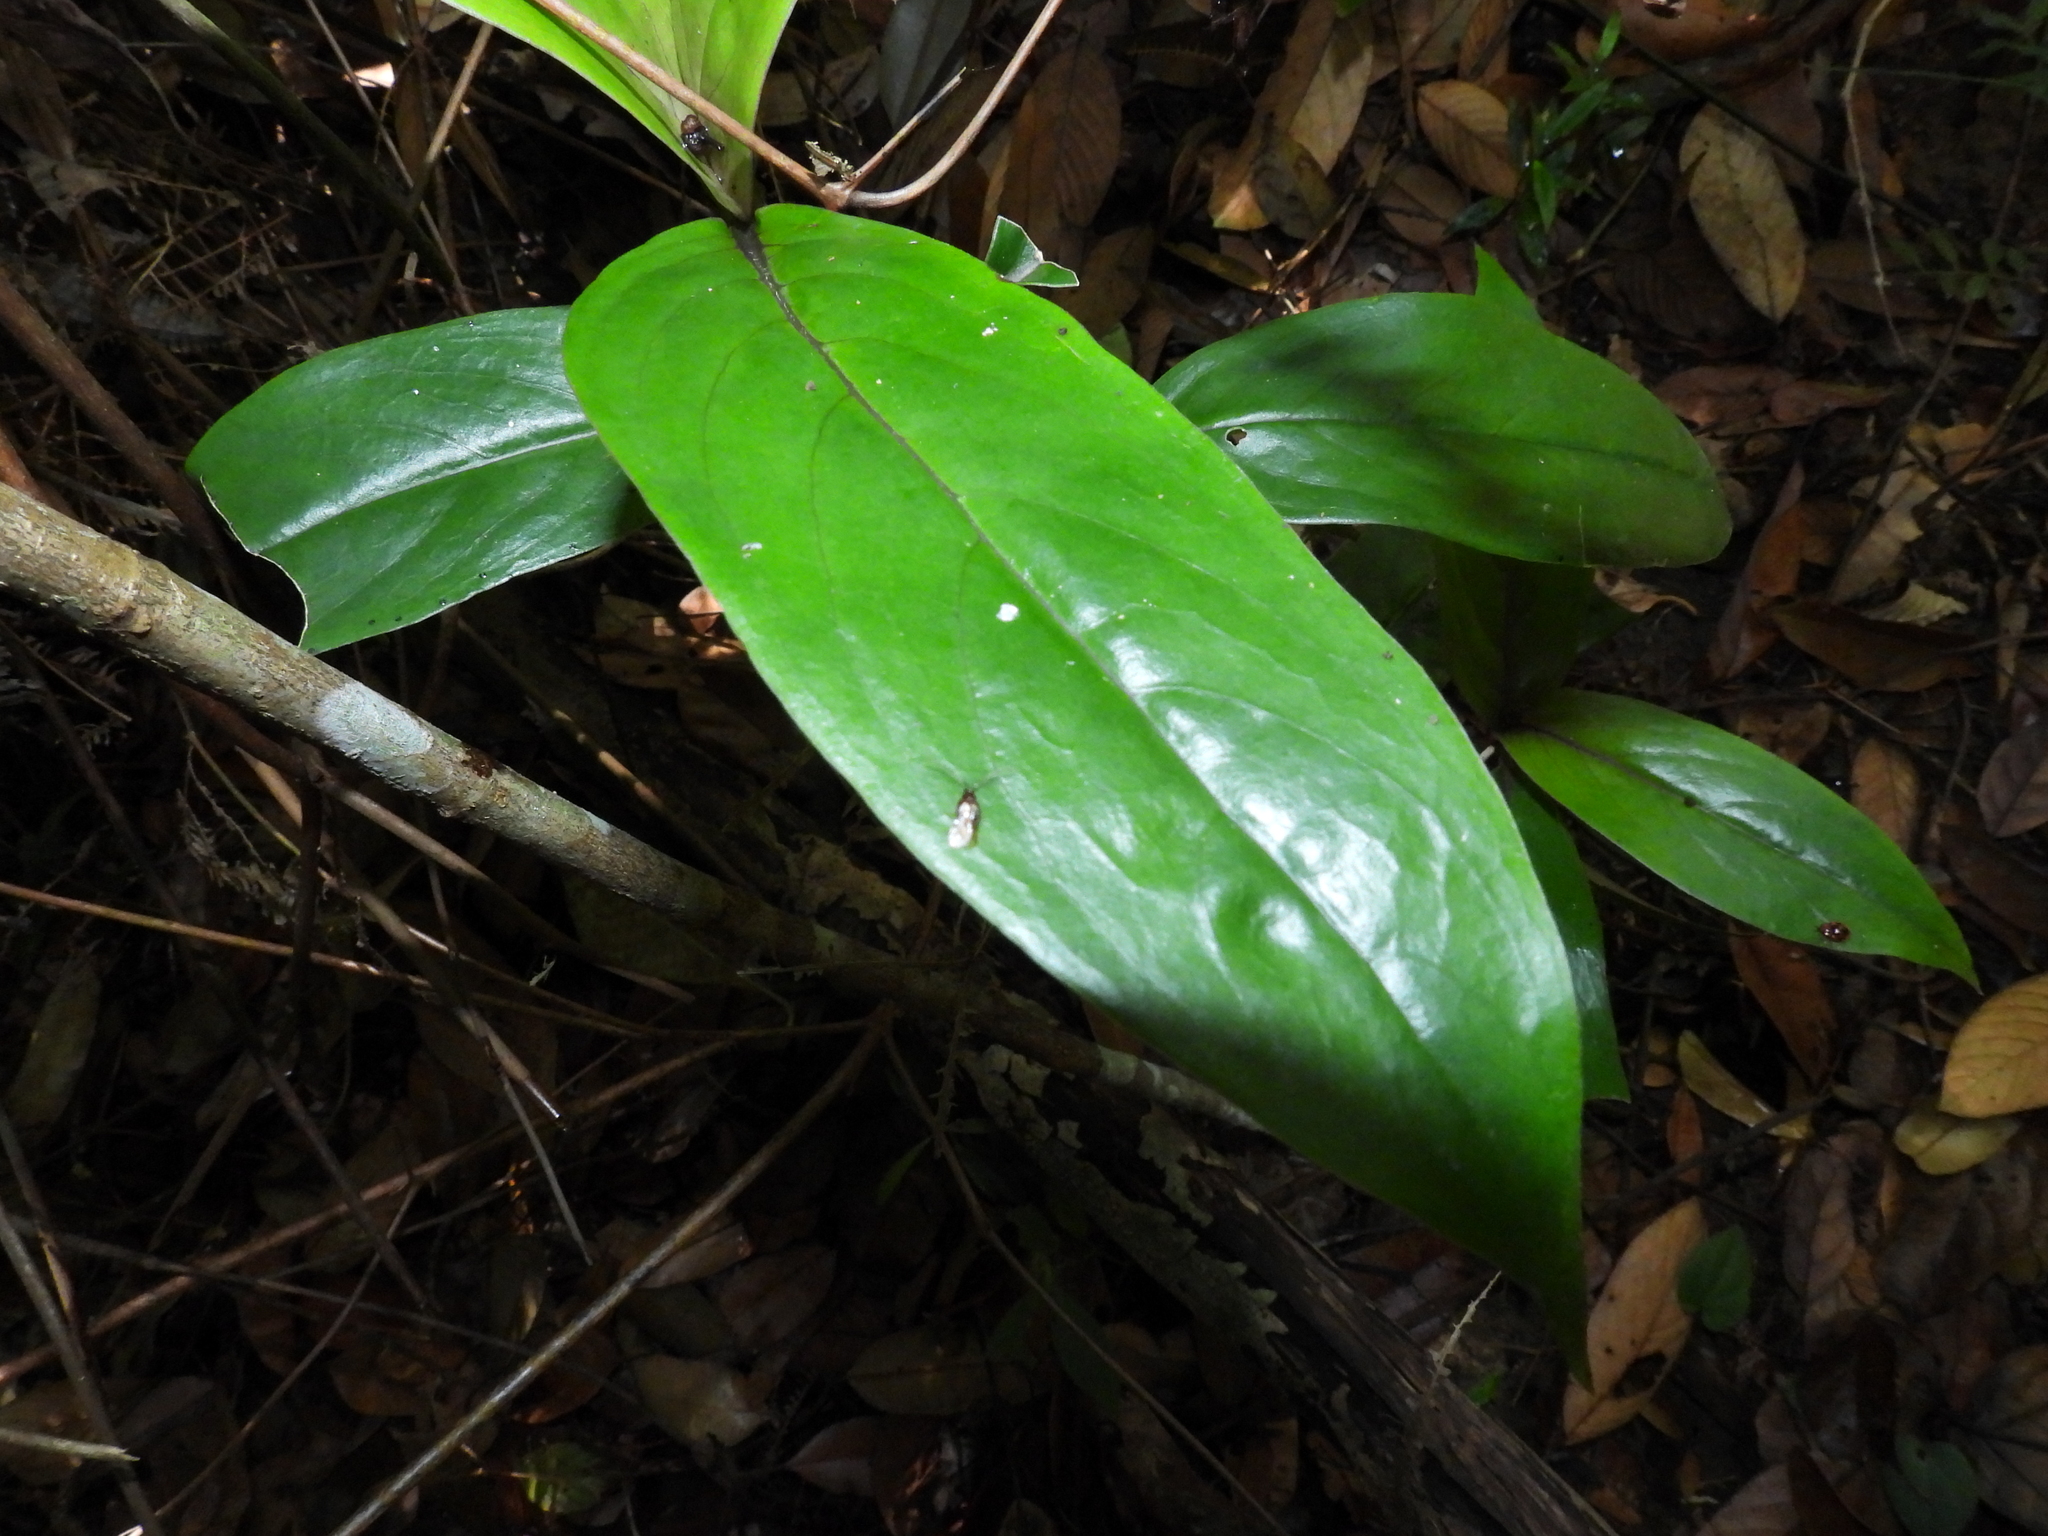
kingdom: Plantae
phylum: Tracheophyta
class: Magnoliopsida
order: Gentianales
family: Rubiaceae
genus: Exallage
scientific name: Exallage cristata
